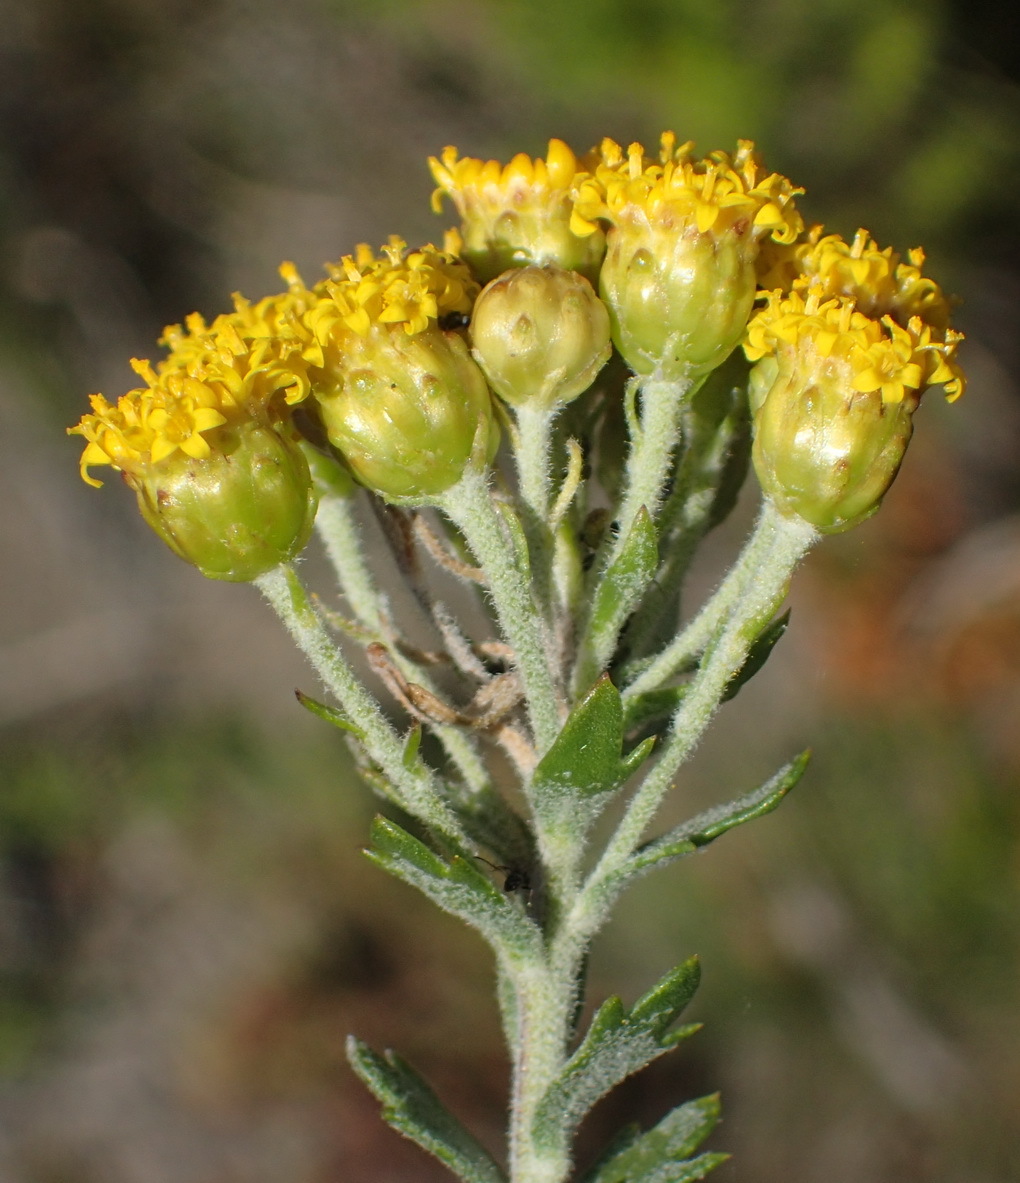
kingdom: Plantae
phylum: Tracheophyta
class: Magnoliopsida
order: Asterales
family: Asteraceae
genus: Athanasia
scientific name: Athanasia trifurcata
